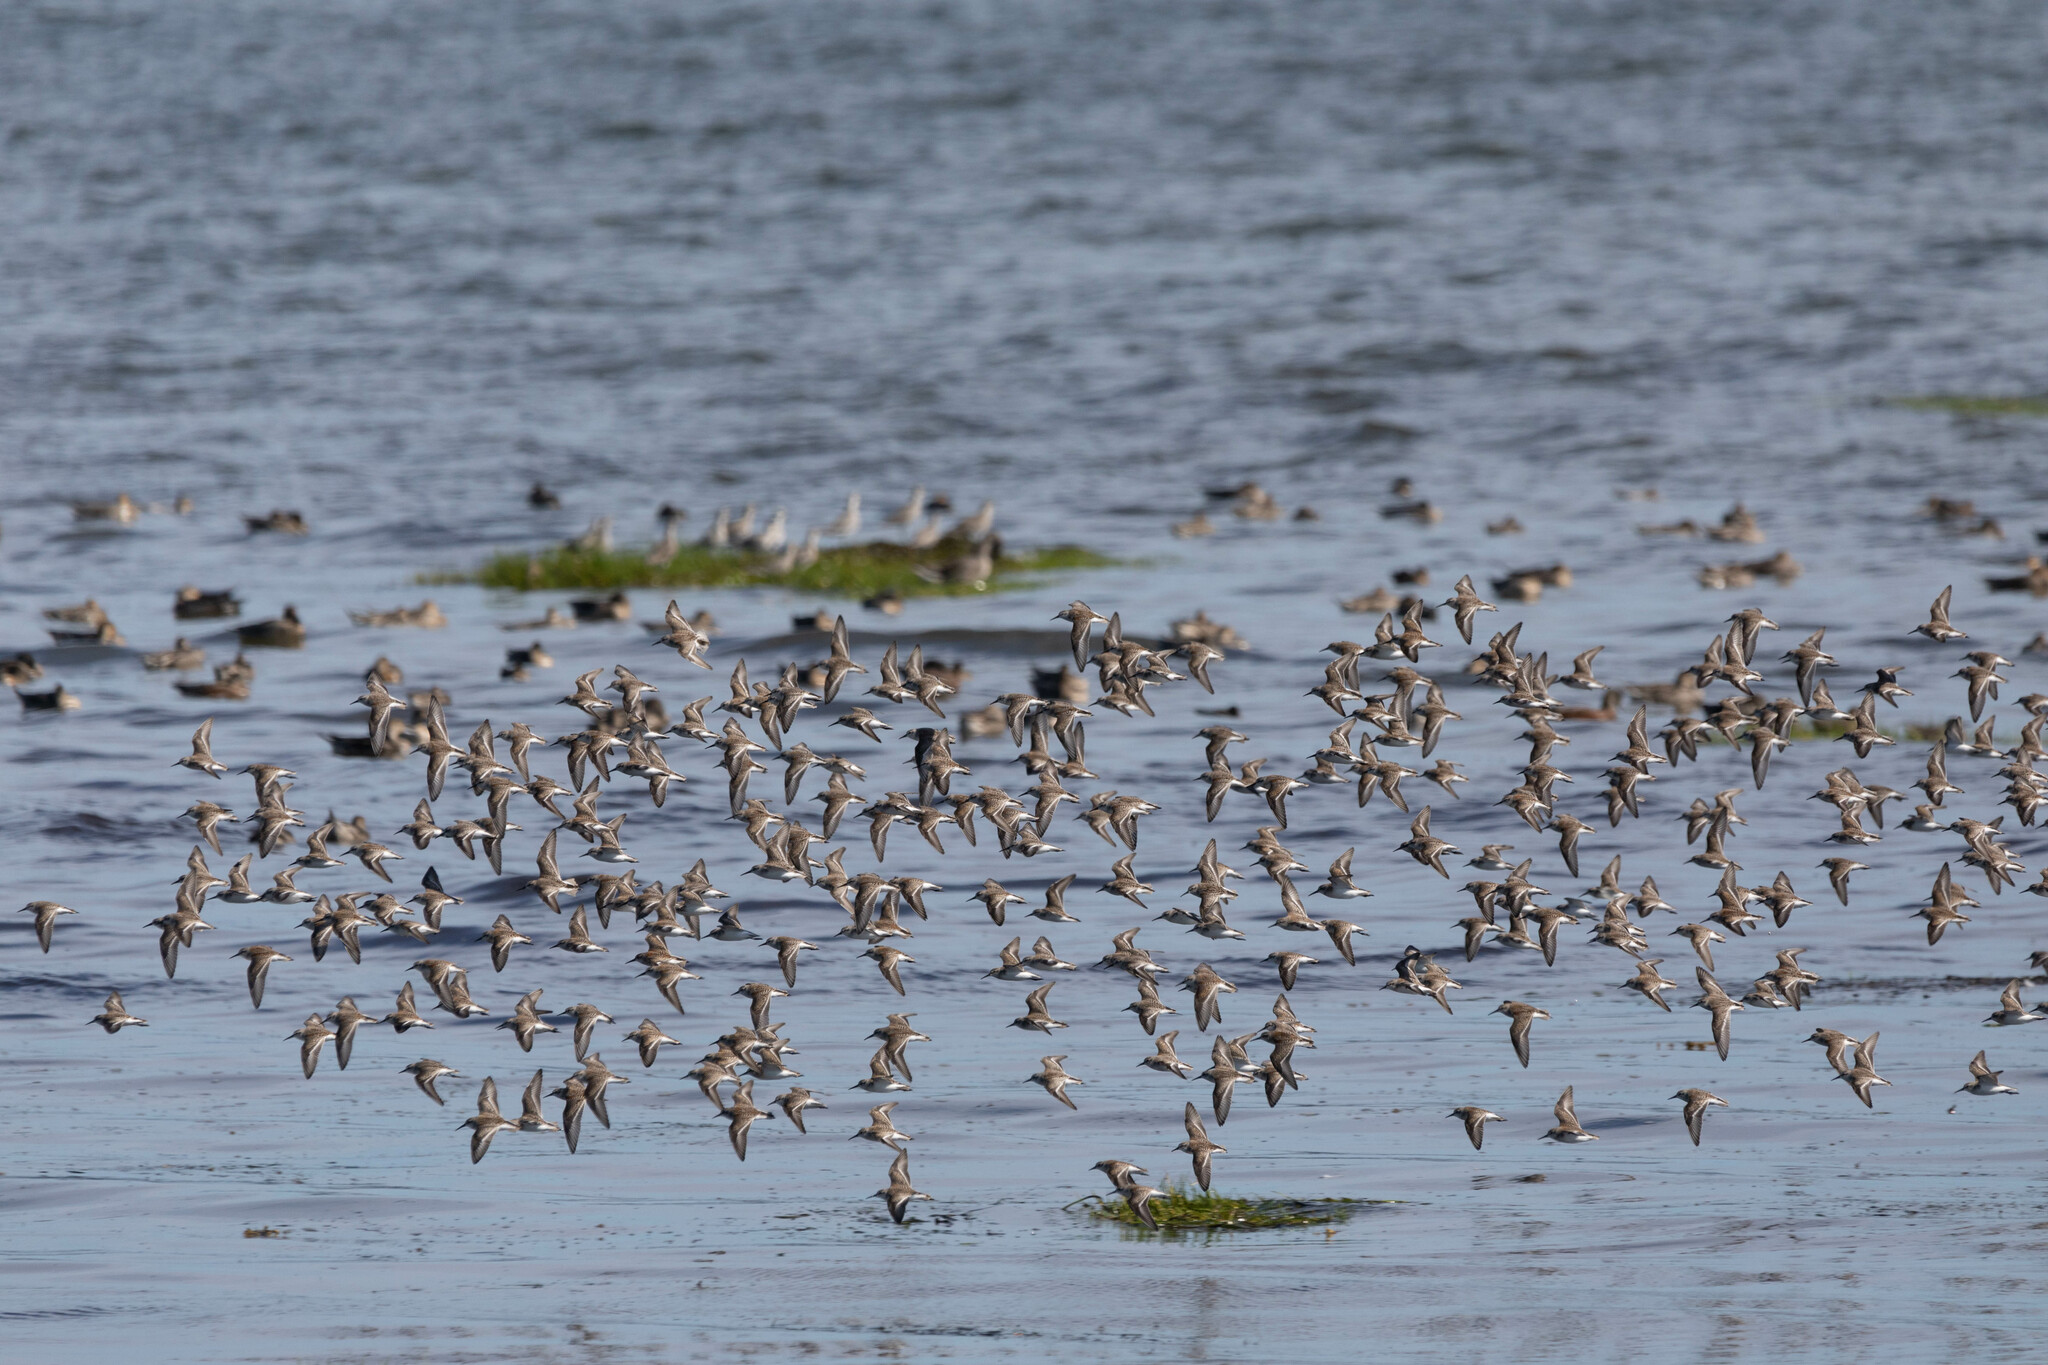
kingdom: Animalia
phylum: Chordata
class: Aves
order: Charadriiformes
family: Scolopacidae
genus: Calidris
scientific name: Calidris mauri
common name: Western sandpiper
